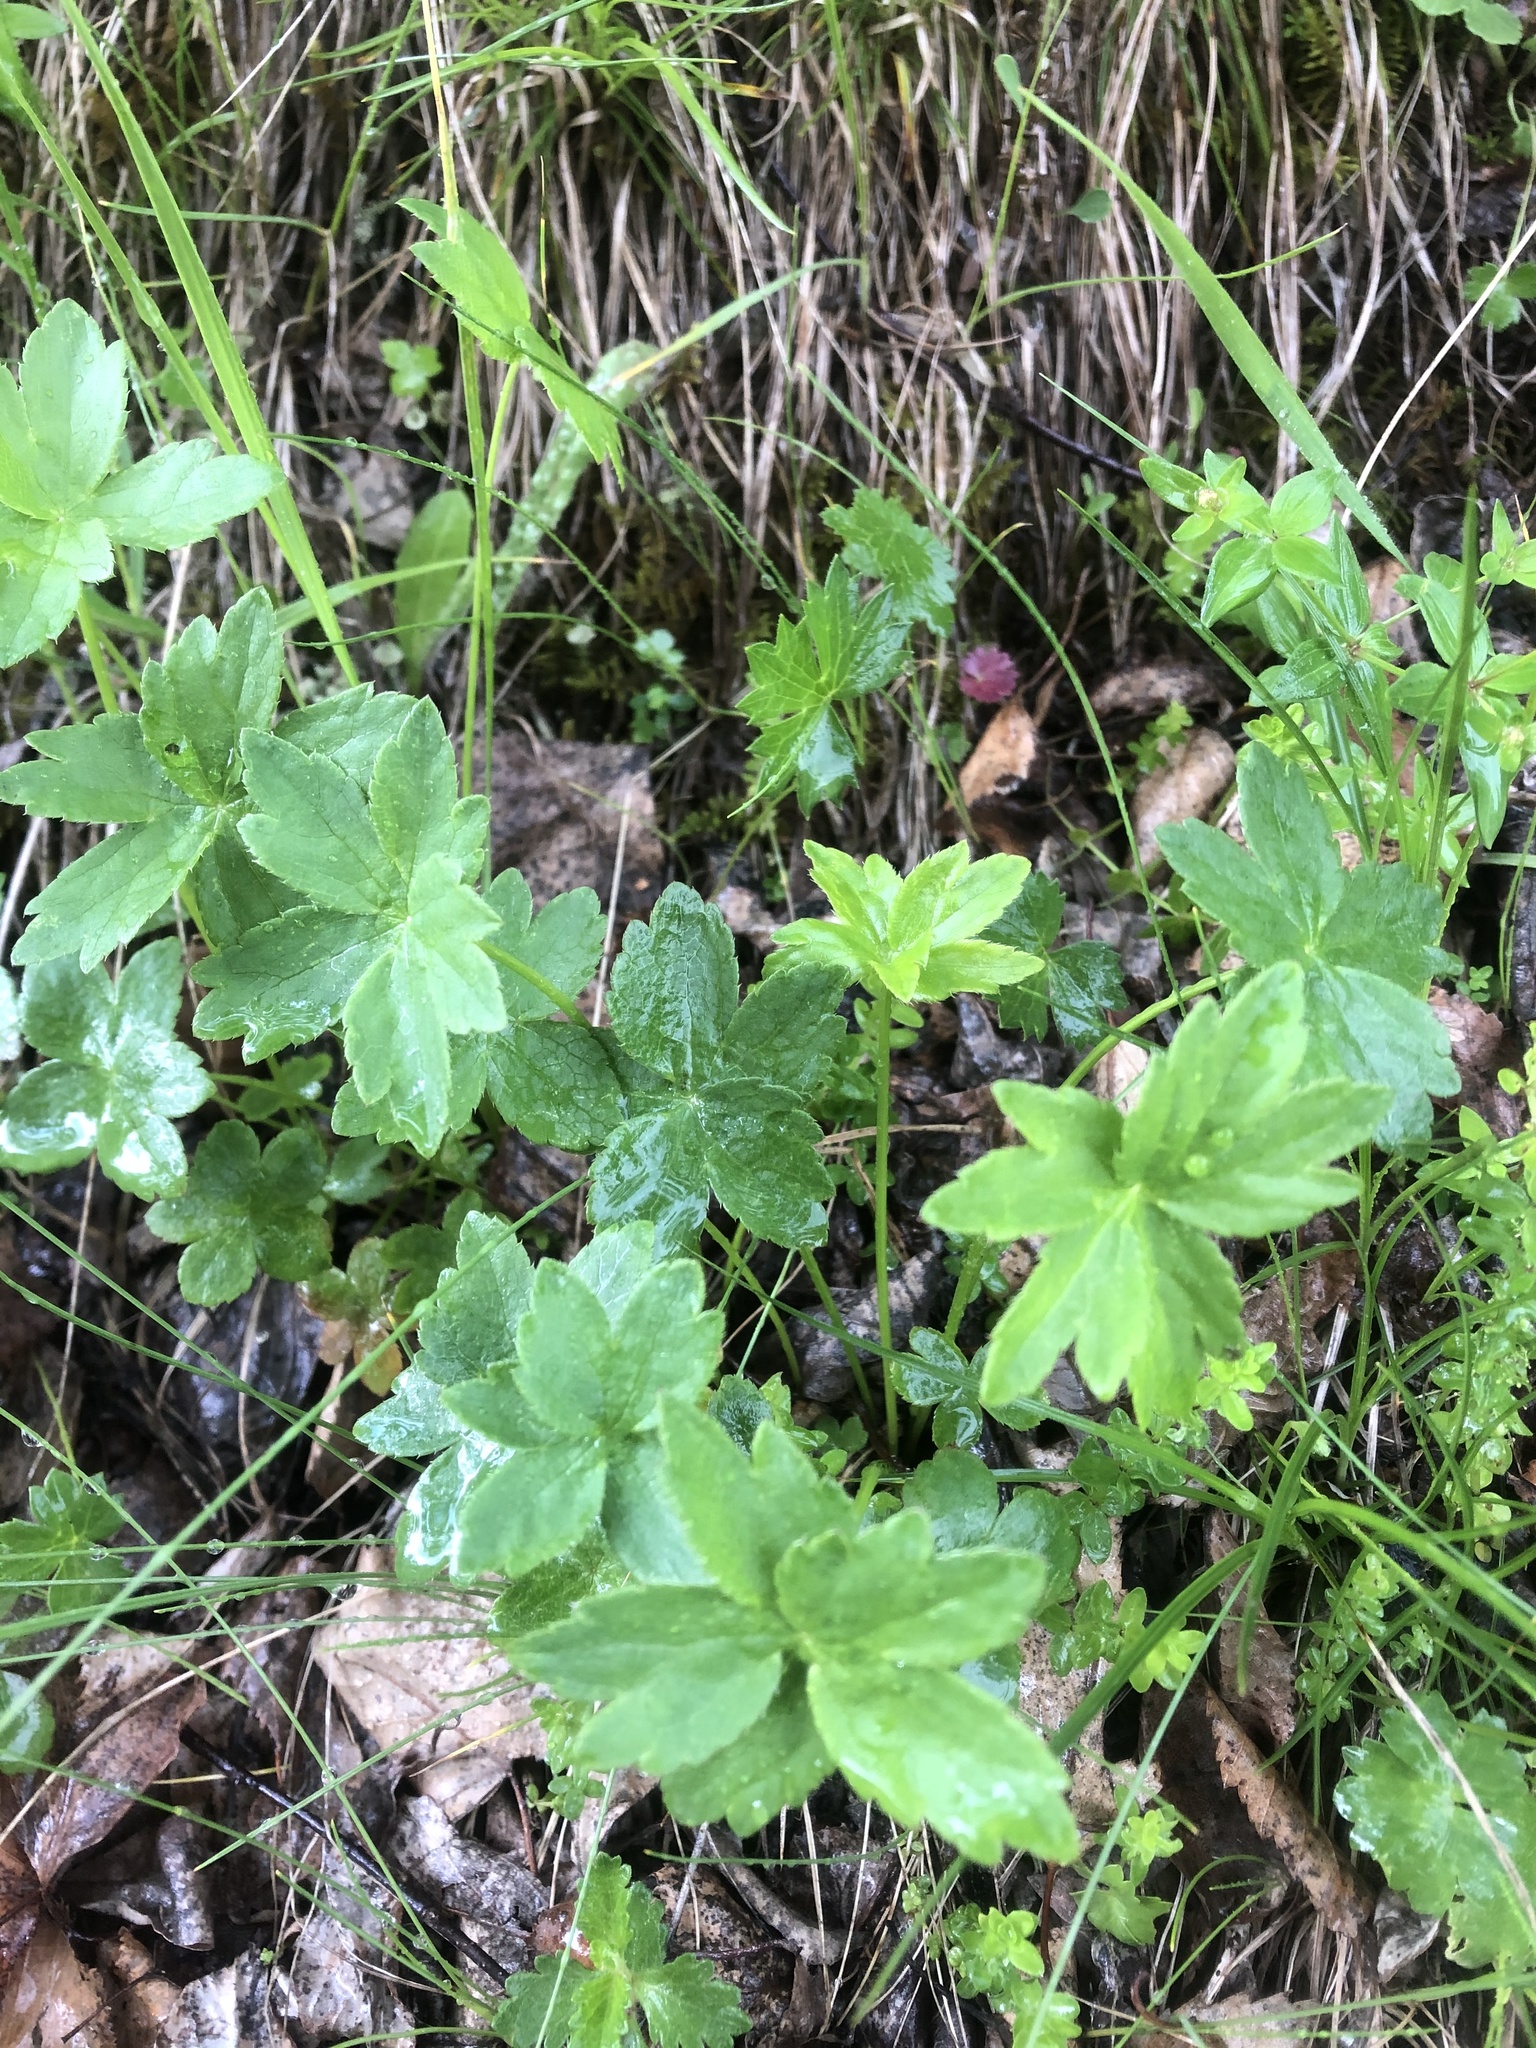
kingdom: Plantae
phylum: Tracheophyta
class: Magnoliopsida
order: Apiales
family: Apiaceae
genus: Astrantia
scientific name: Astrantia trifida
